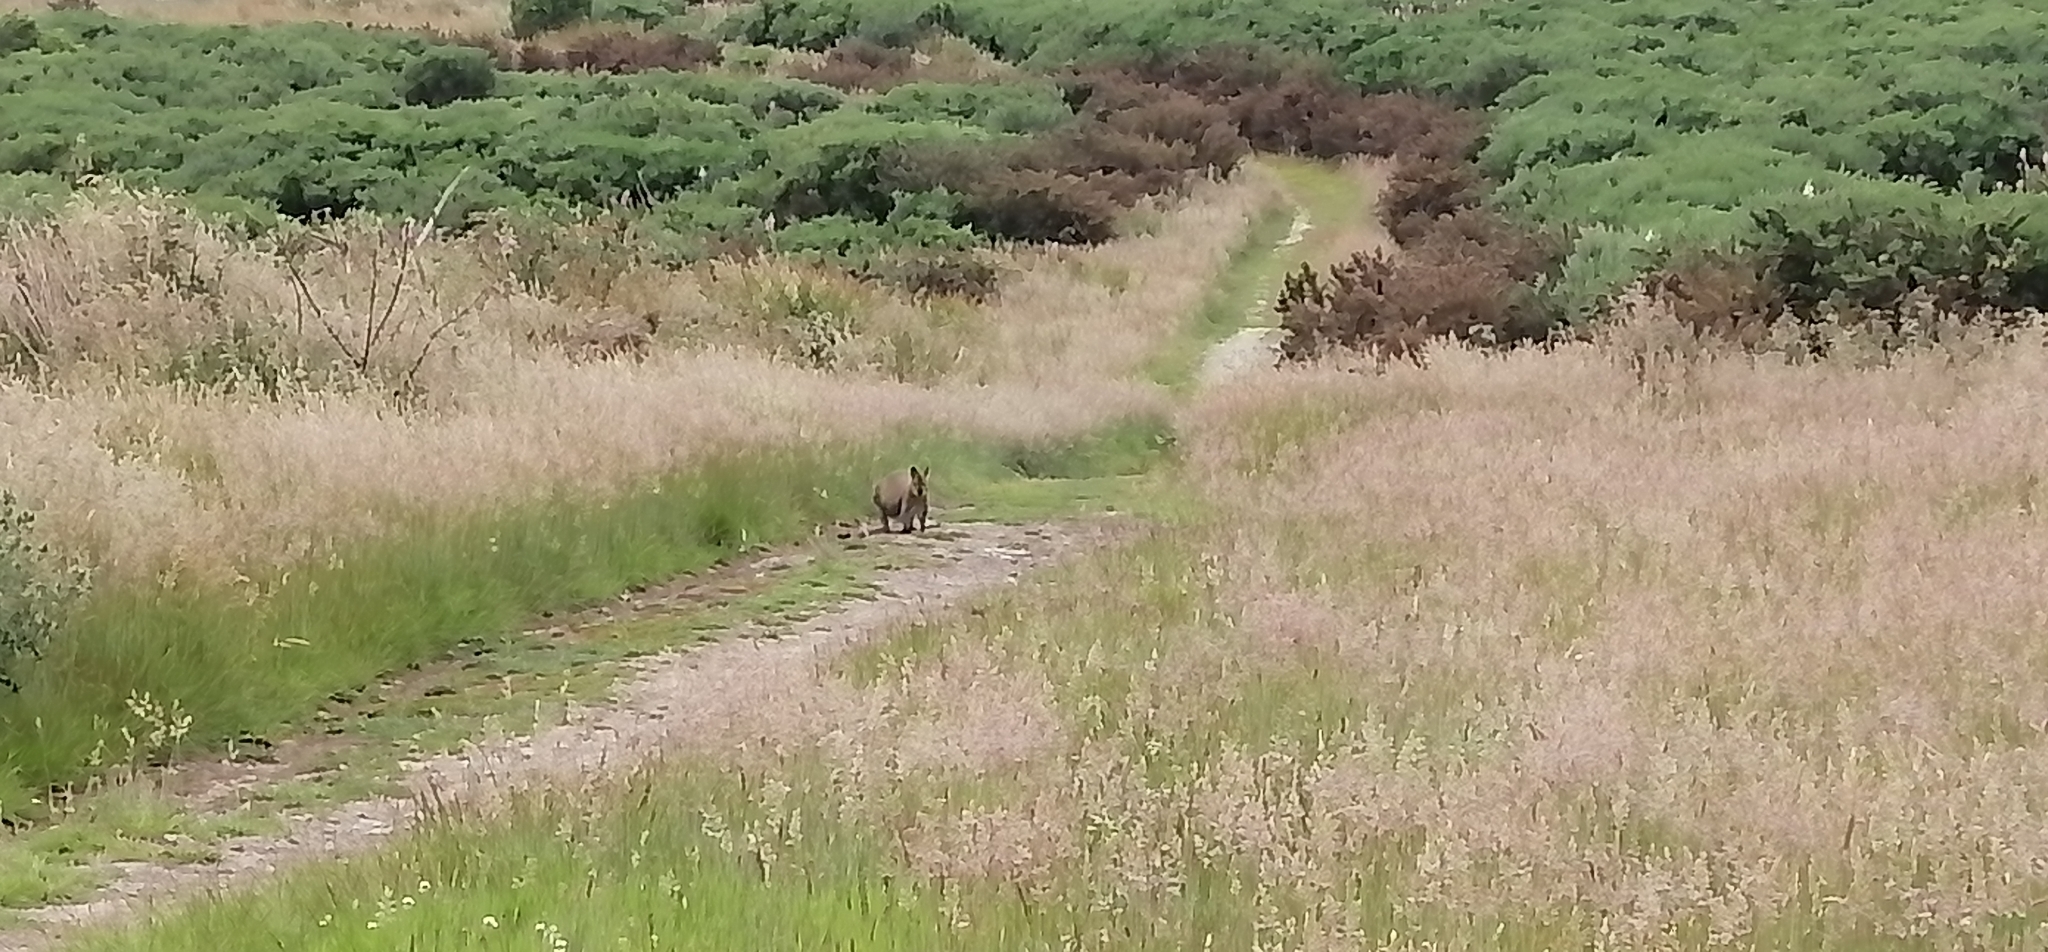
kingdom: Animalia
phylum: Chordata
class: Mammalia
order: Diprotodontia
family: Macropodidae
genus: Notamacropus
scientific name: Notamacropus rufogriseus
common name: Red-necked wallaby
